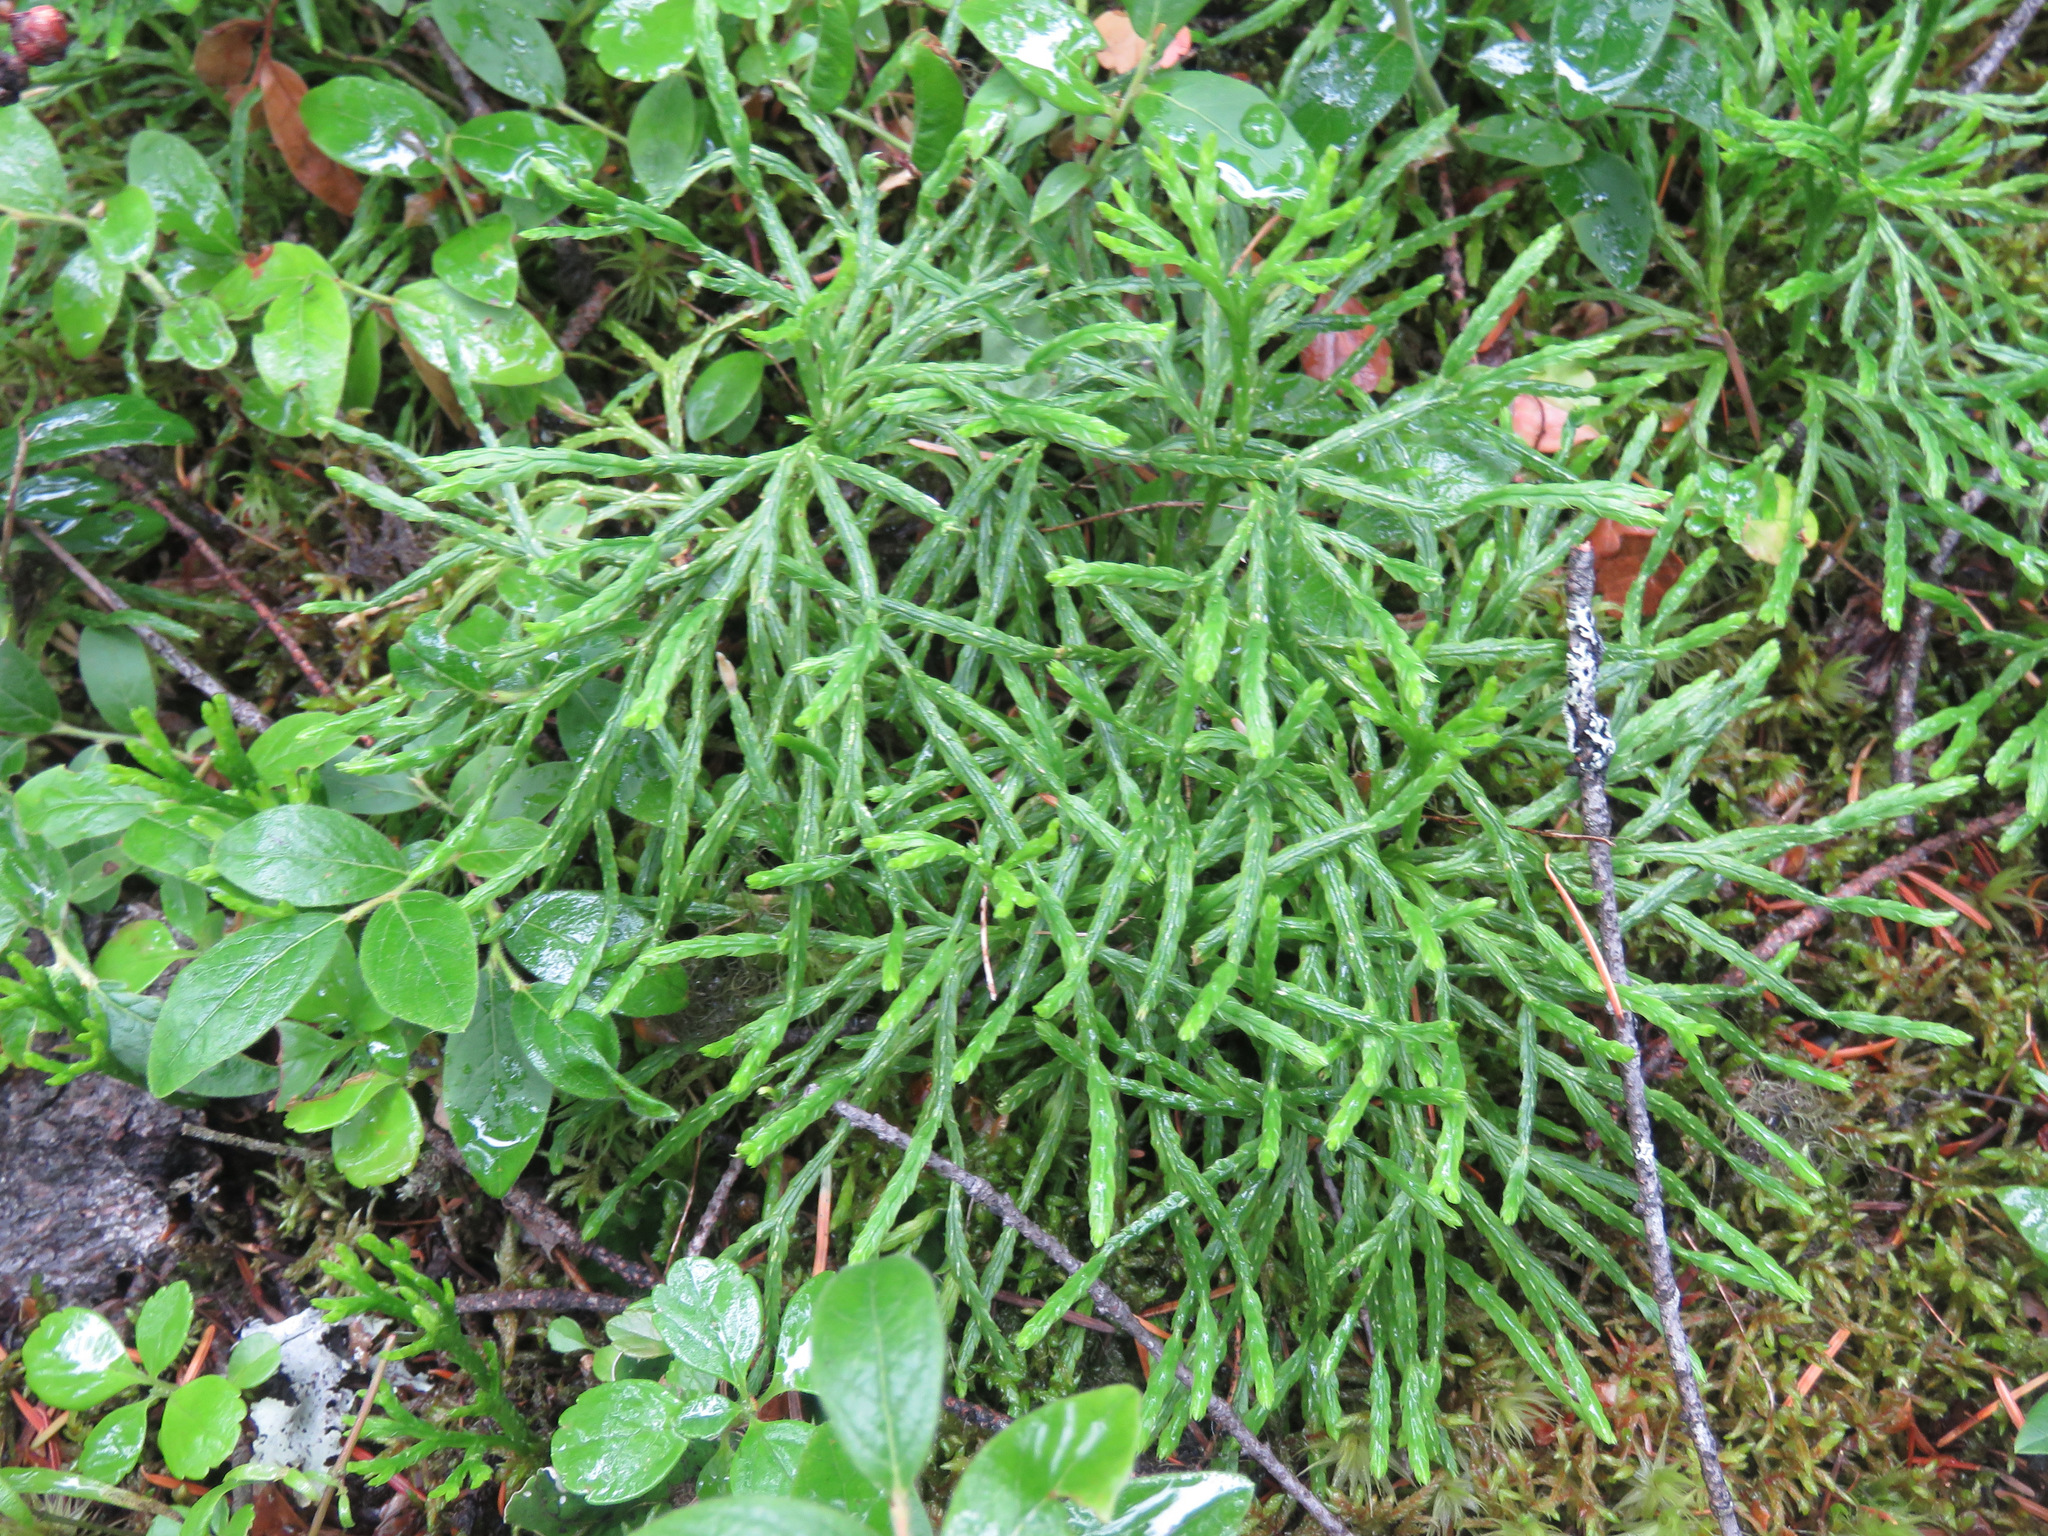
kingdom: Plantae
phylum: Tracheophyta
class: Lycopodiopsida
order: Lycopodiales
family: Lycopodiaceae
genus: Diphasiastrum
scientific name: Diphasiastrum complanatum
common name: Northern running-pine
